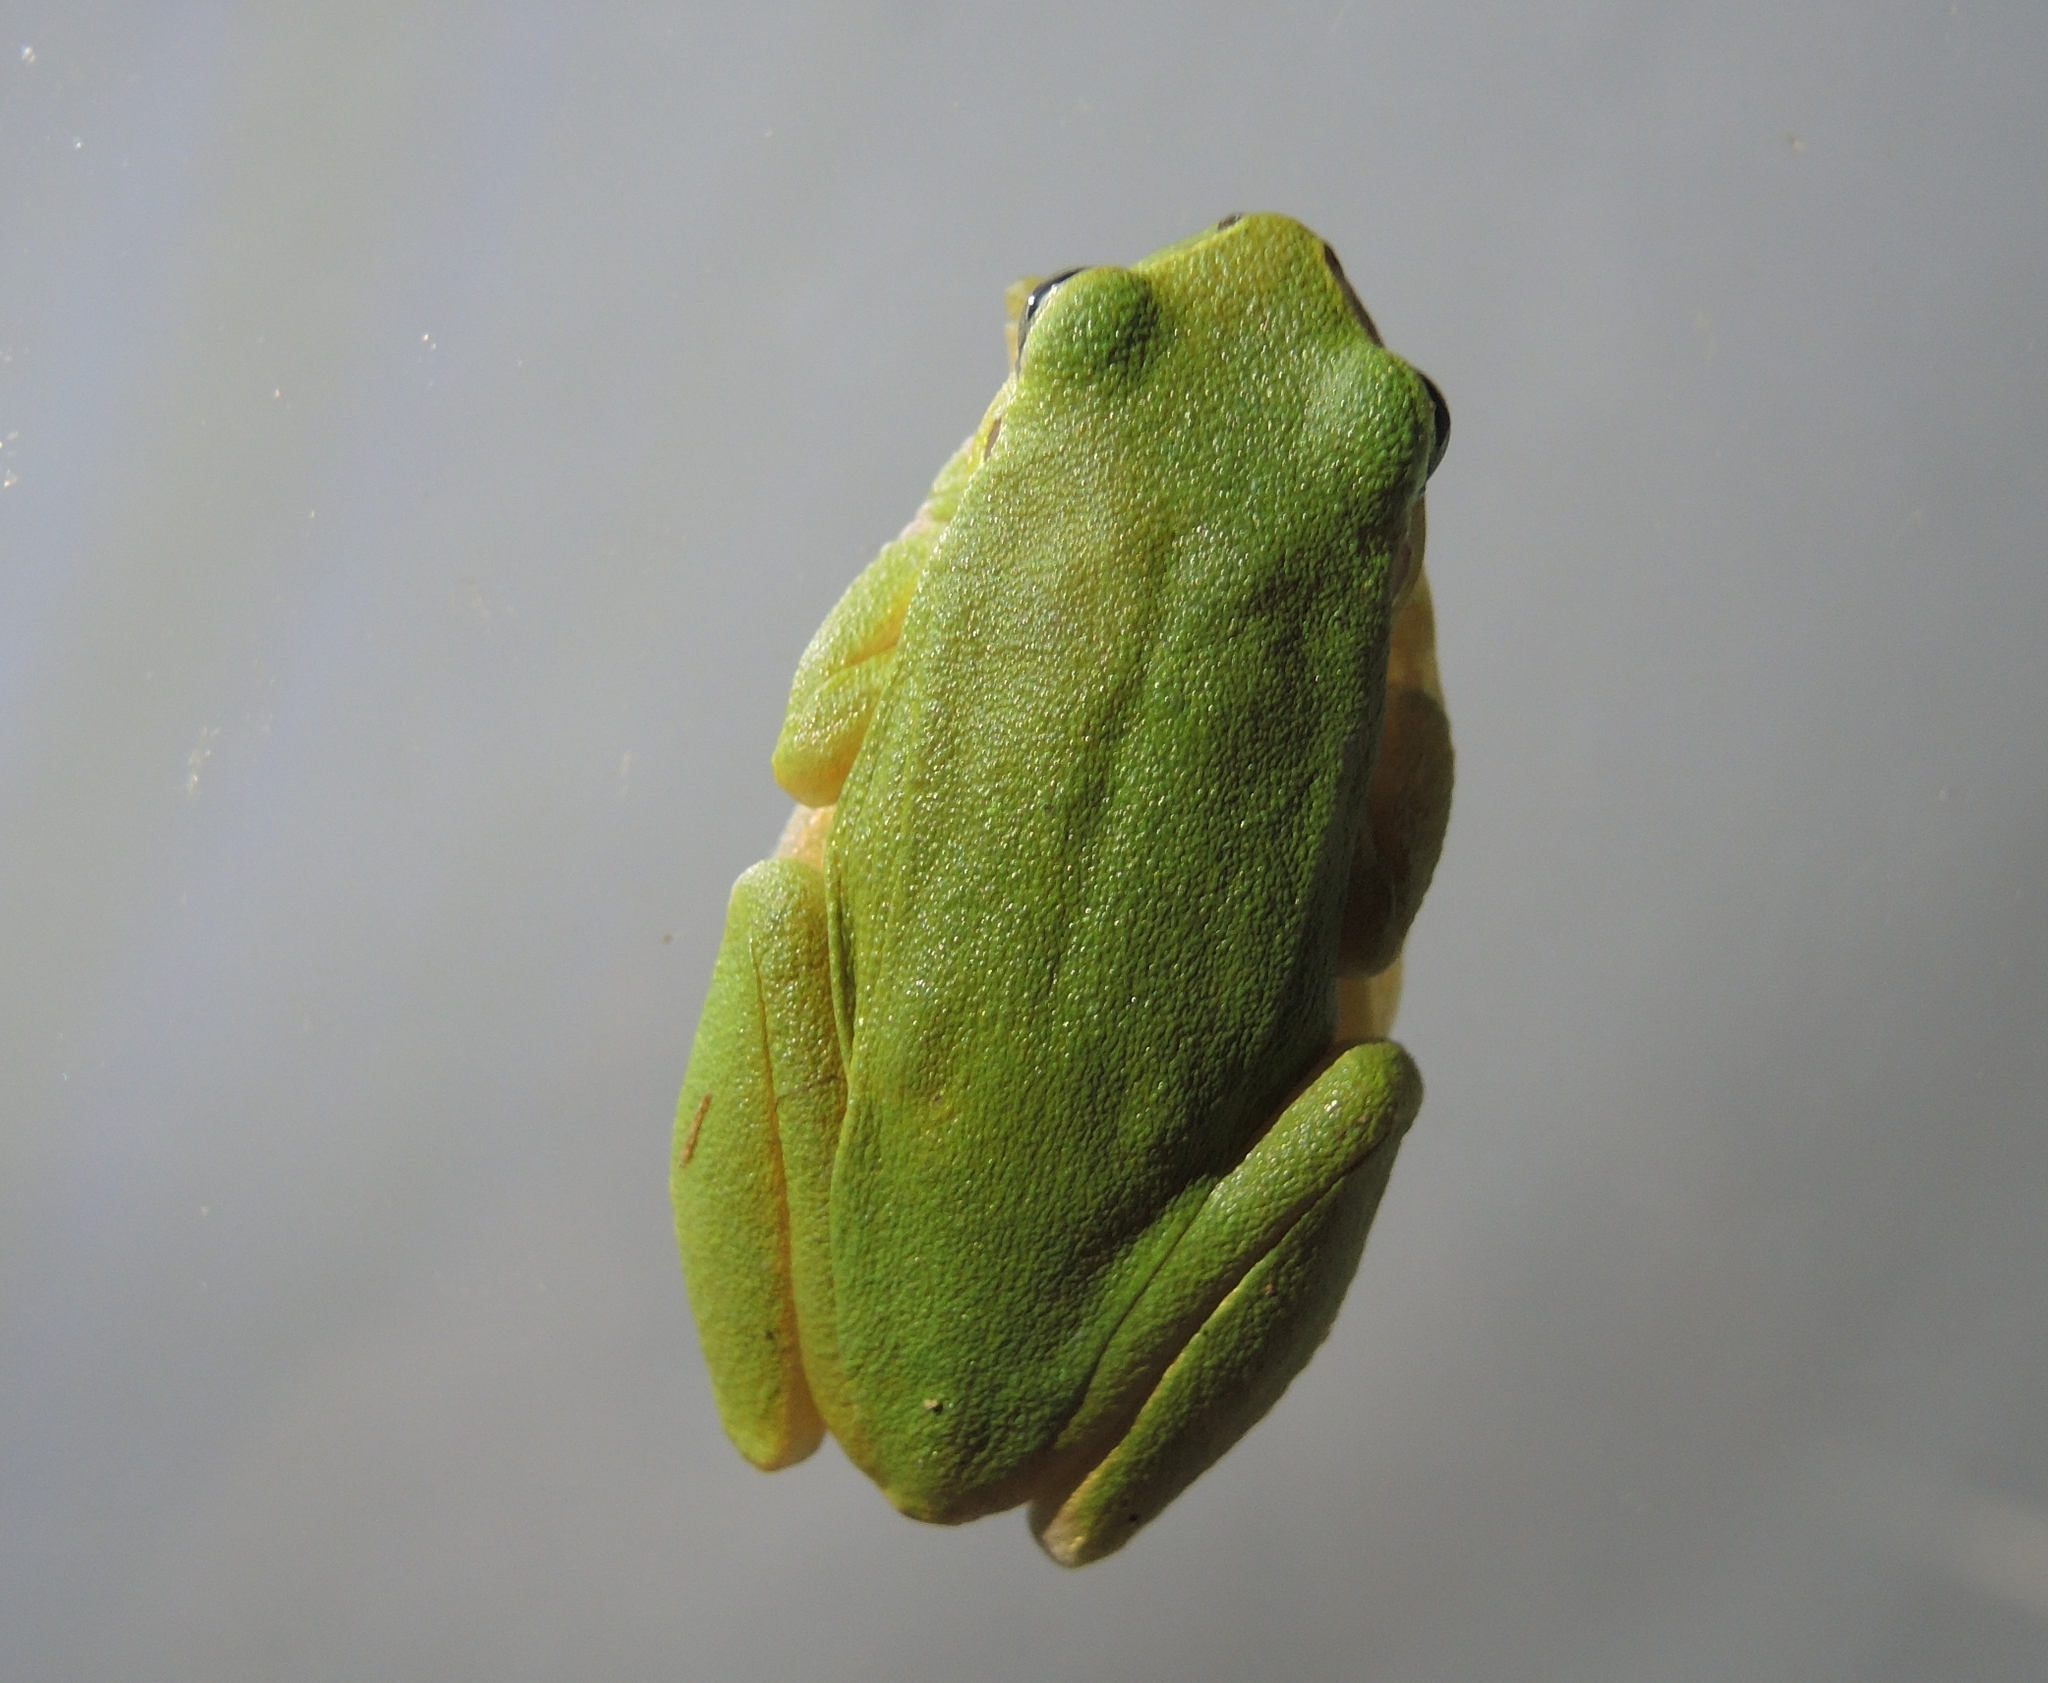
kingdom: Animalia
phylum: Chordata
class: Amphibia
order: Anura
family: Hylidae
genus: Hyla
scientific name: Hyla orientalis
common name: Caucasian treefrog
